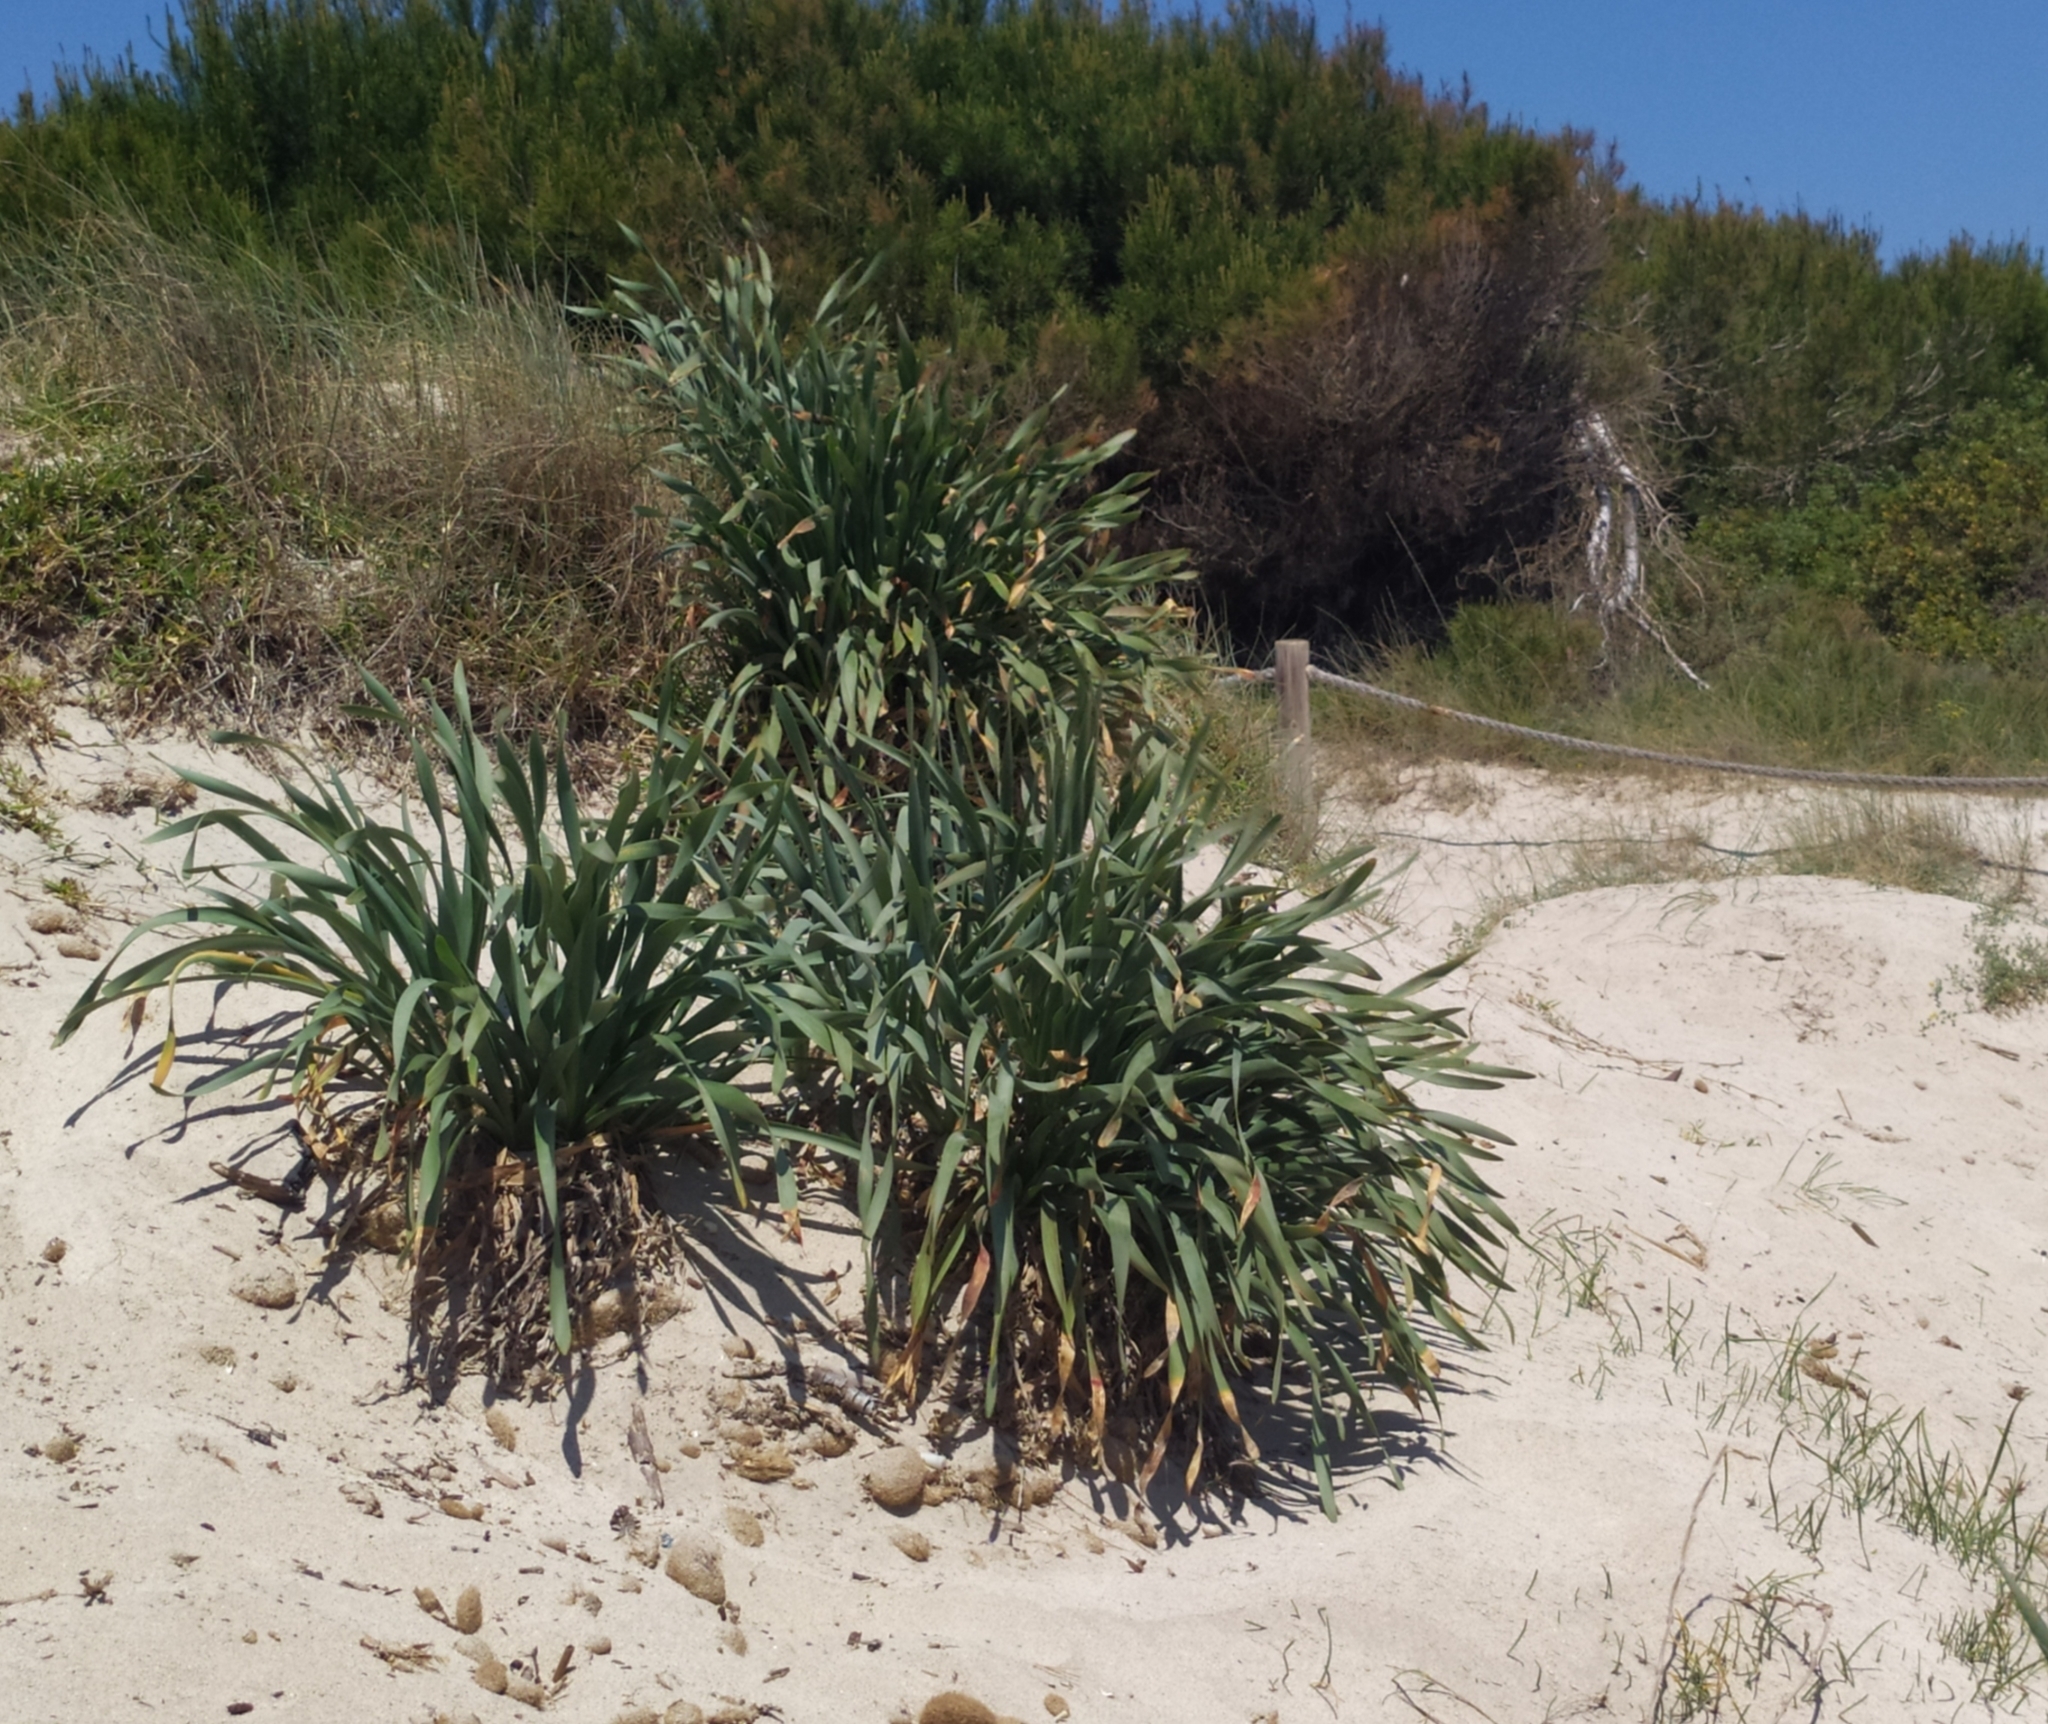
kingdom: Plantae
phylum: Tracheophyta
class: Liliopsida
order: Asparagales
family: Amaryllidaceae
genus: Pancratium
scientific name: Pancratium maritimum
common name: Sea-daffodil
